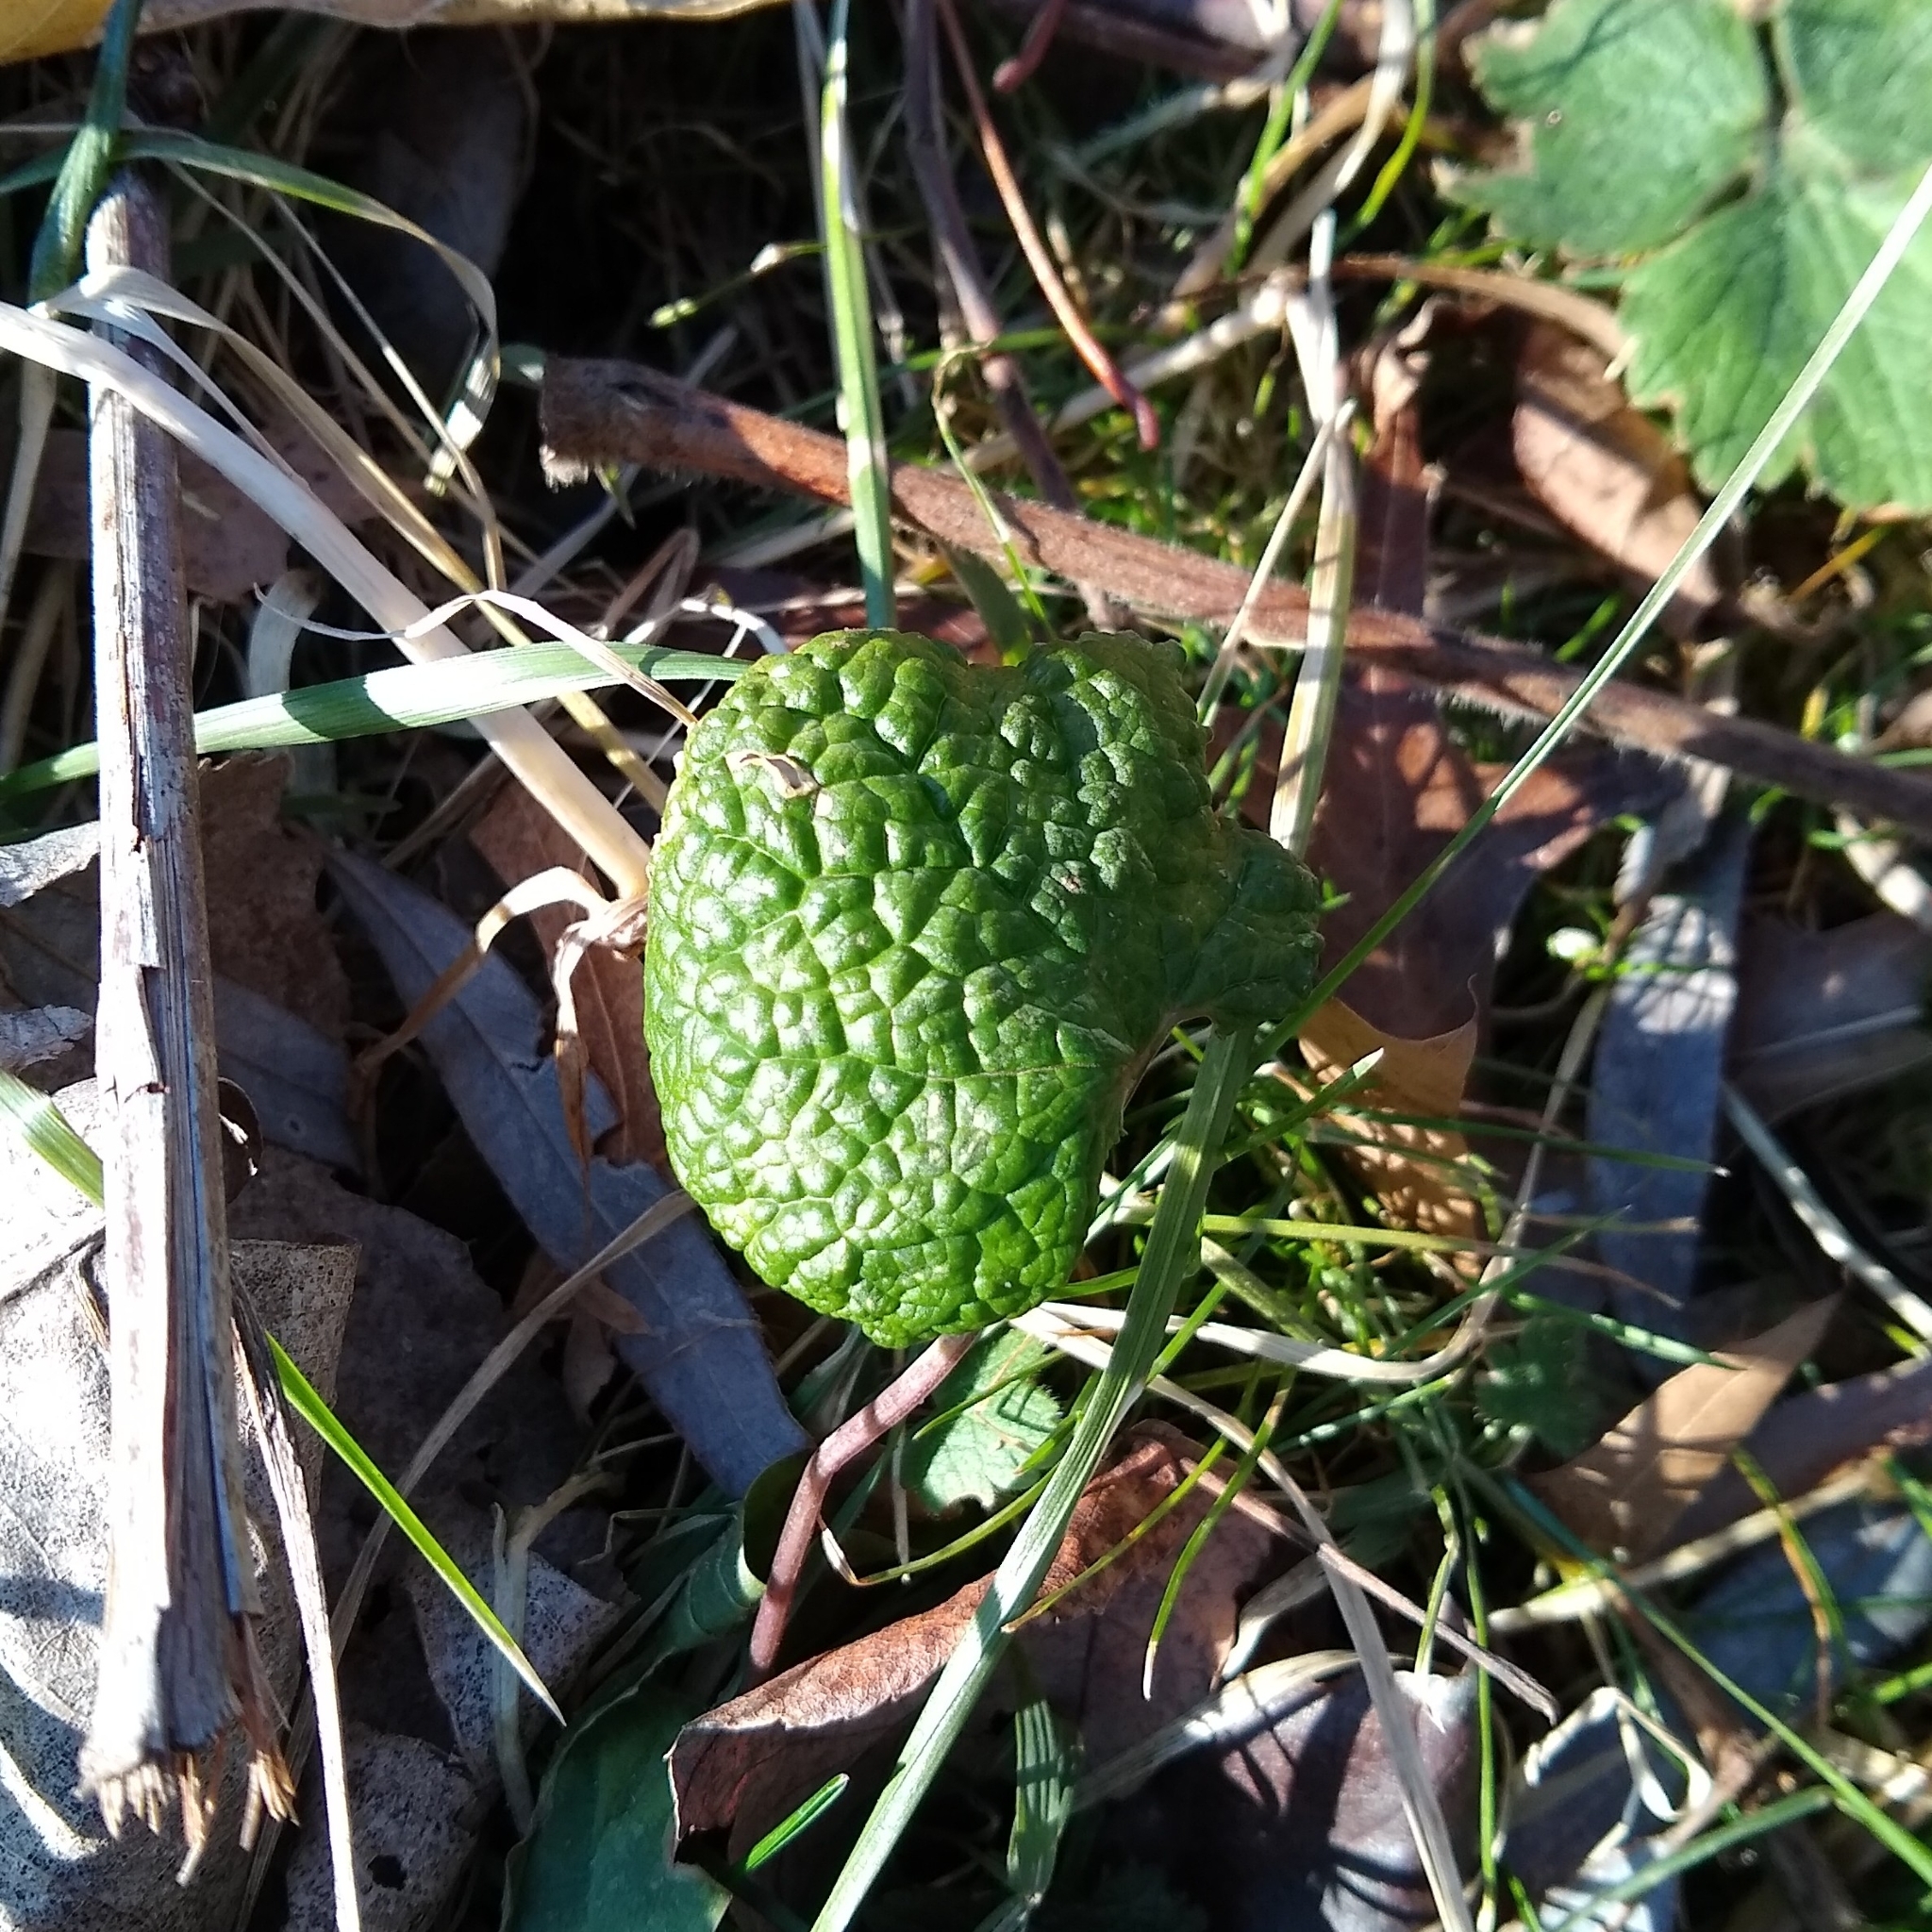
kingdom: Plantae
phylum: Tracheophyta
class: Magnoliopsida
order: Brassicales
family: Brassicaceae
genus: Alliaria
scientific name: Alliaria petiolata
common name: Garlic mustard
